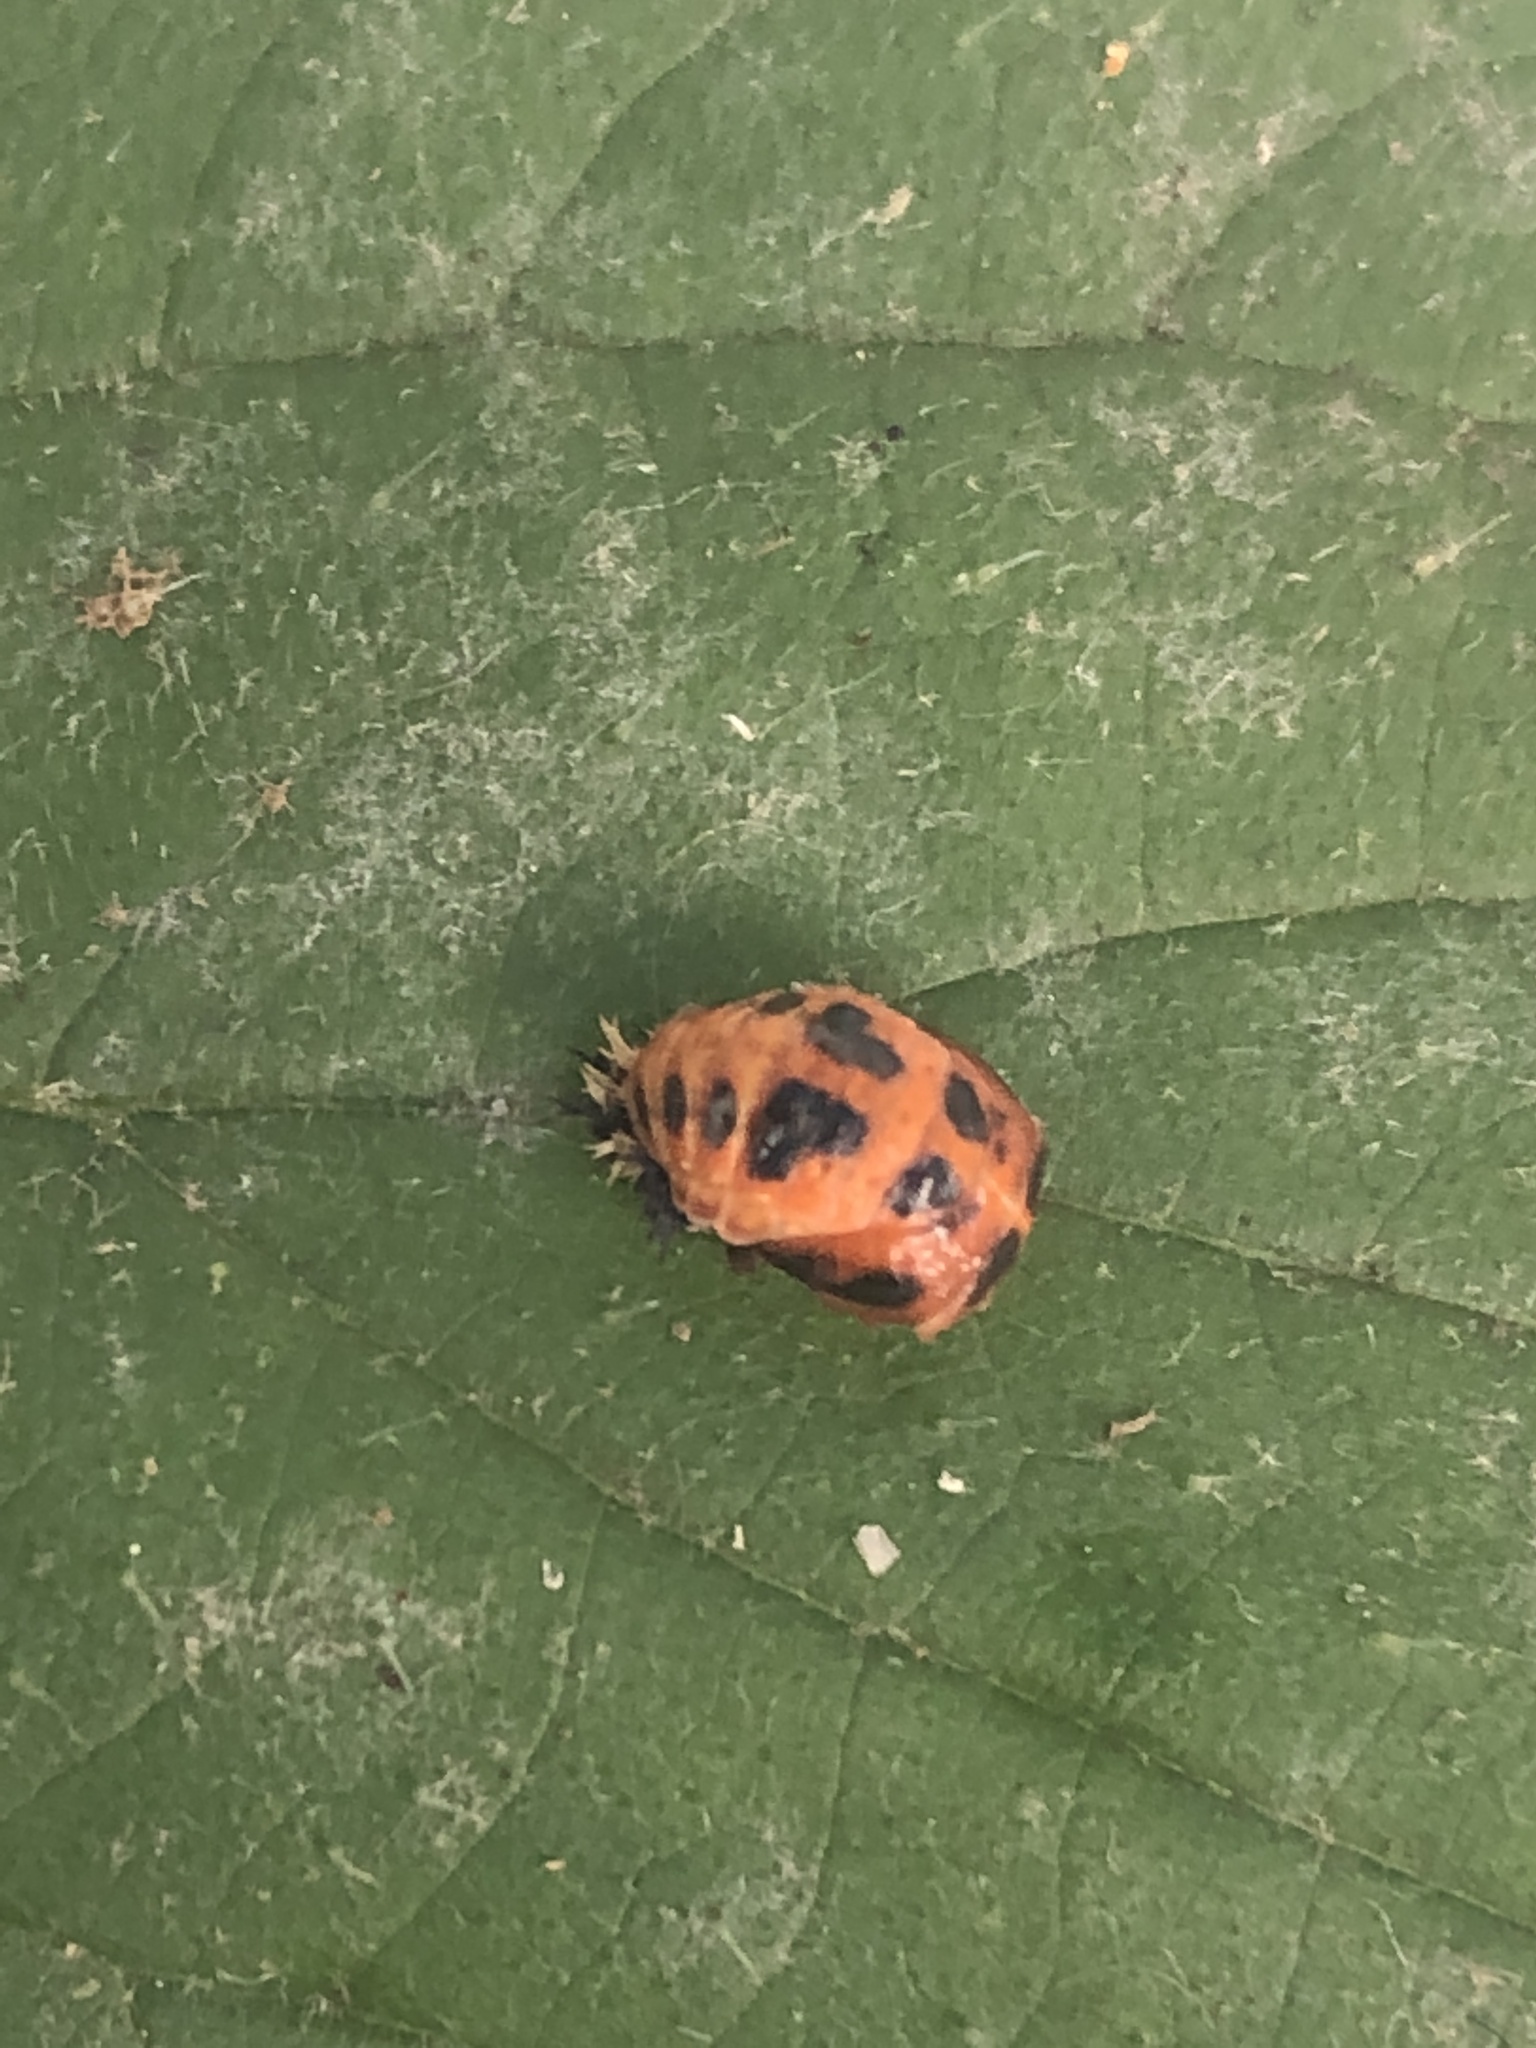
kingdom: Animalia
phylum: Arthropoda
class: Insecta
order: Coleoptera
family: Coccinellidae
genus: Harmonia
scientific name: Harmonia axyridis
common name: Harlequin ladybird
